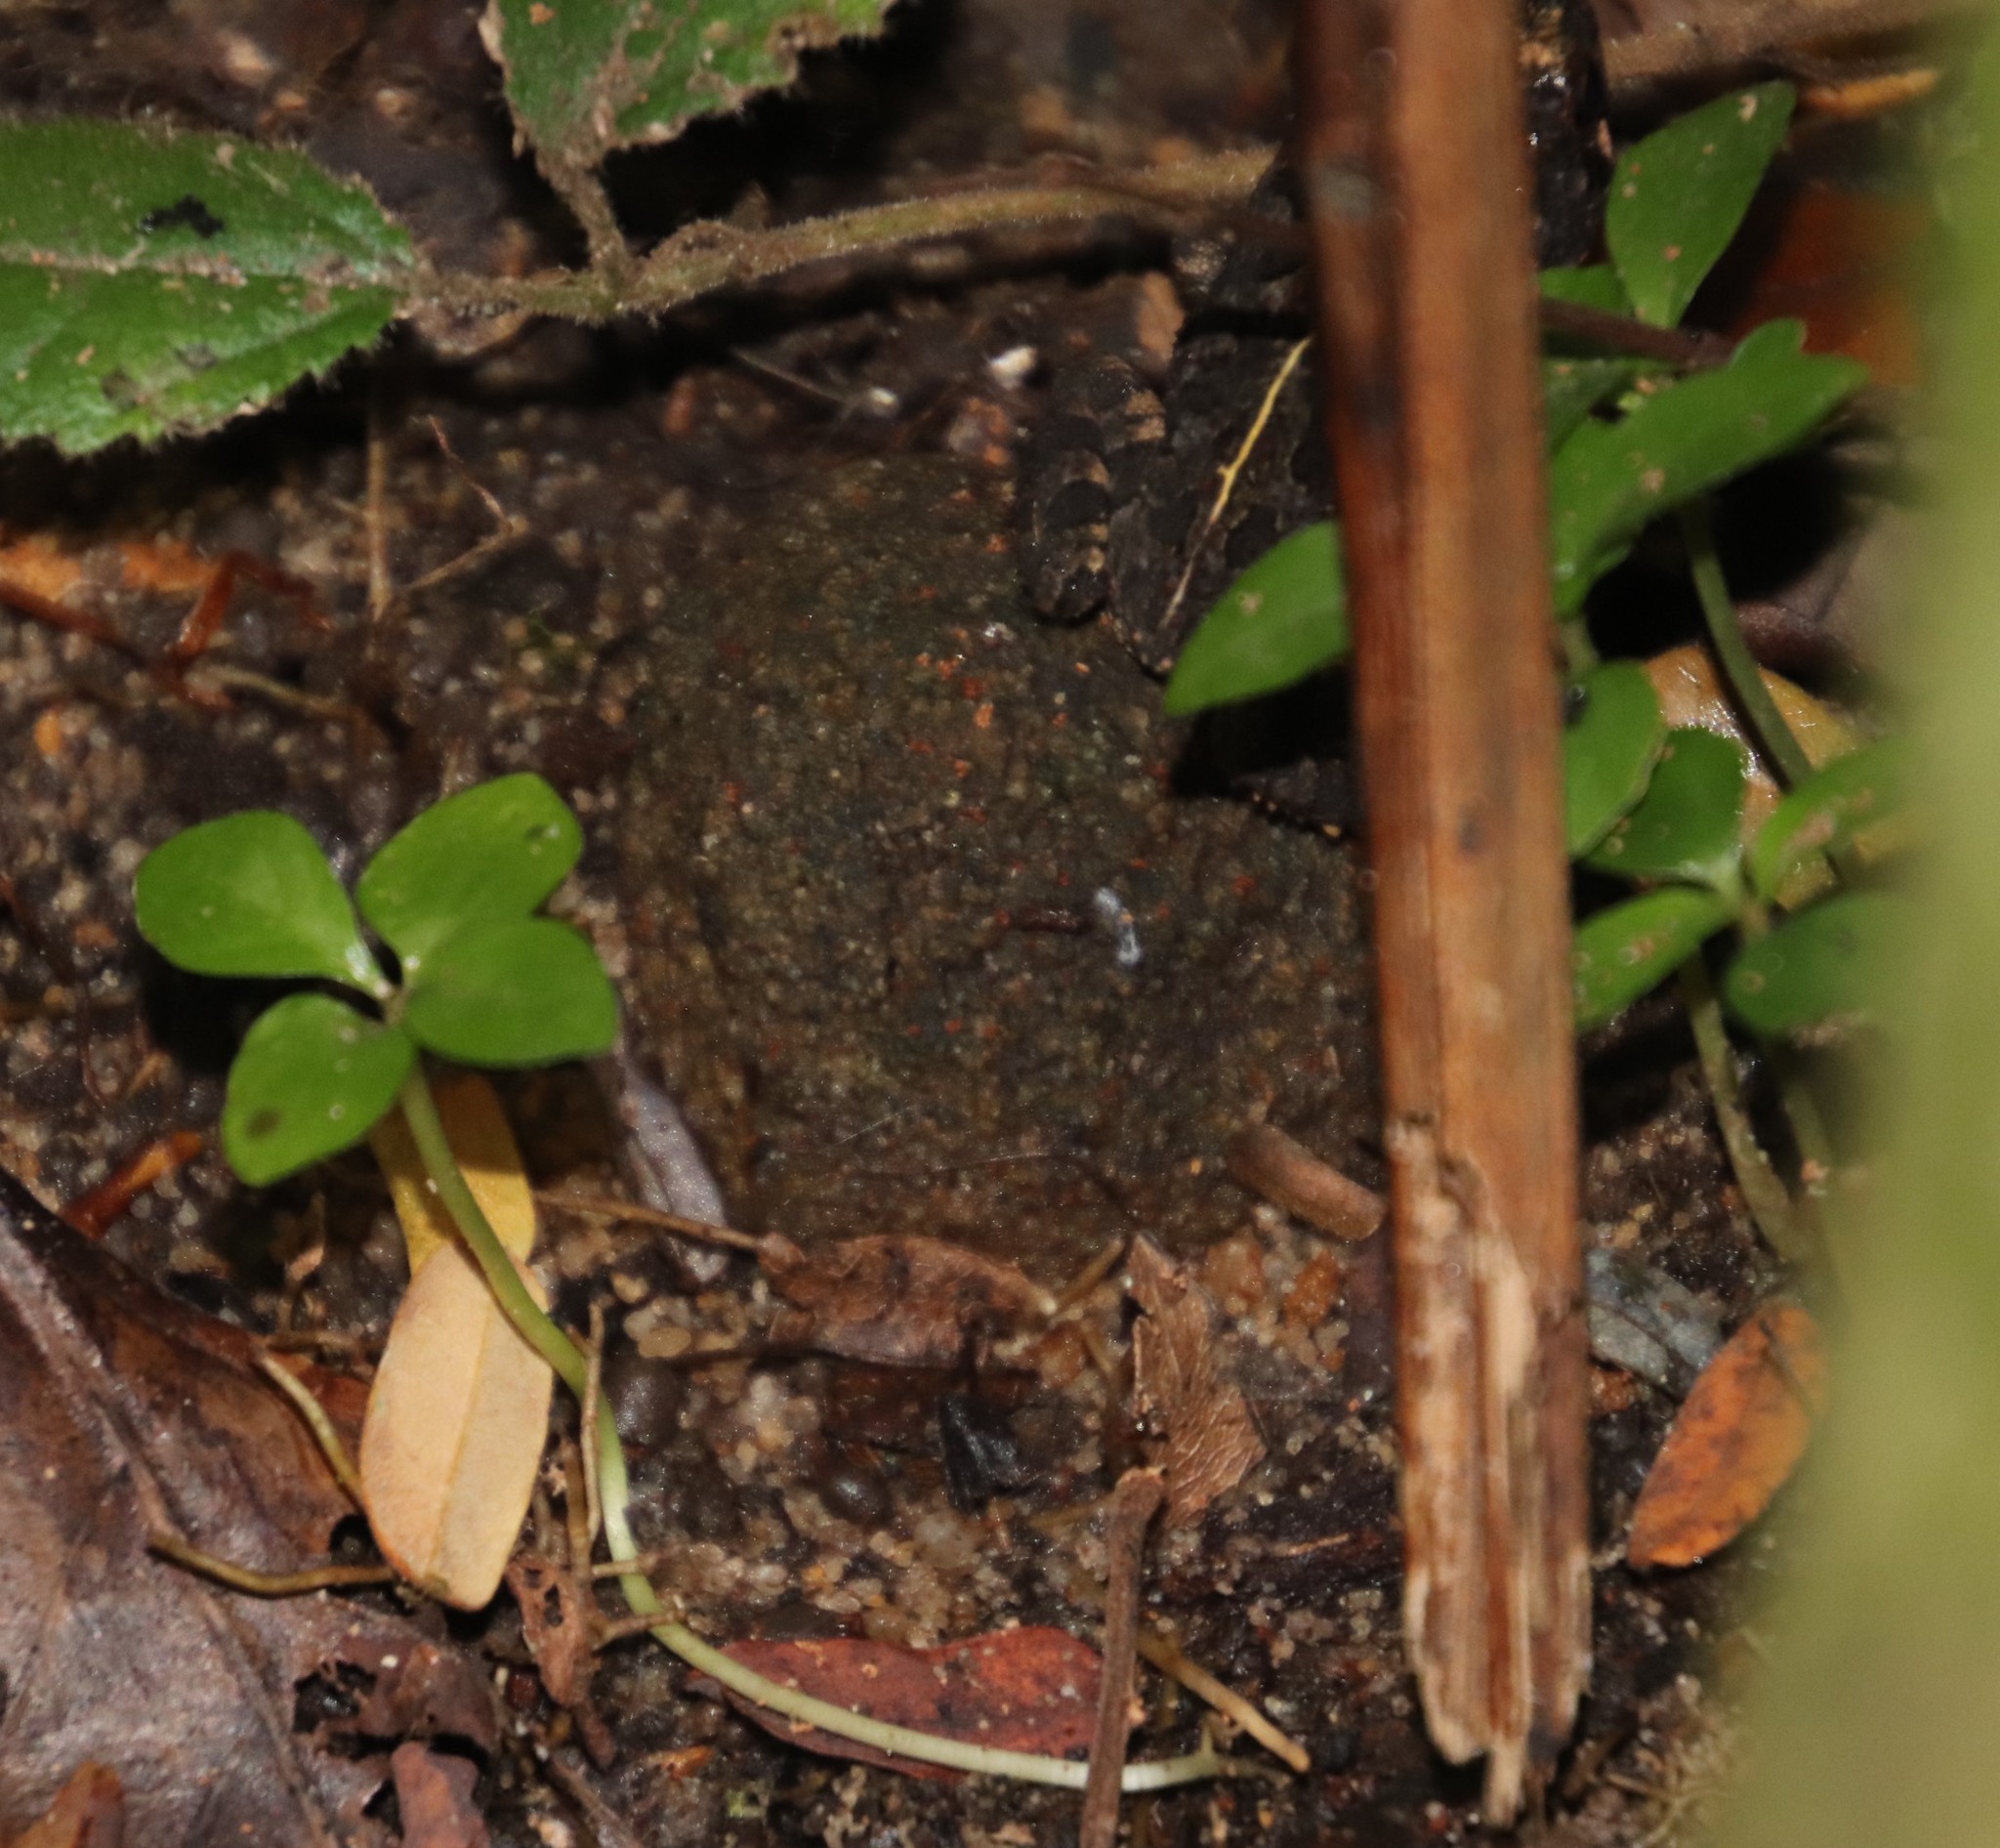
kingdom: Animalia
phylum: Chordata
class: Amphibia
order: Anura
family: Bufonidae
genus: Sclerophrys
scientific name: Sclerophrys gutturalis
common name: African common toad
